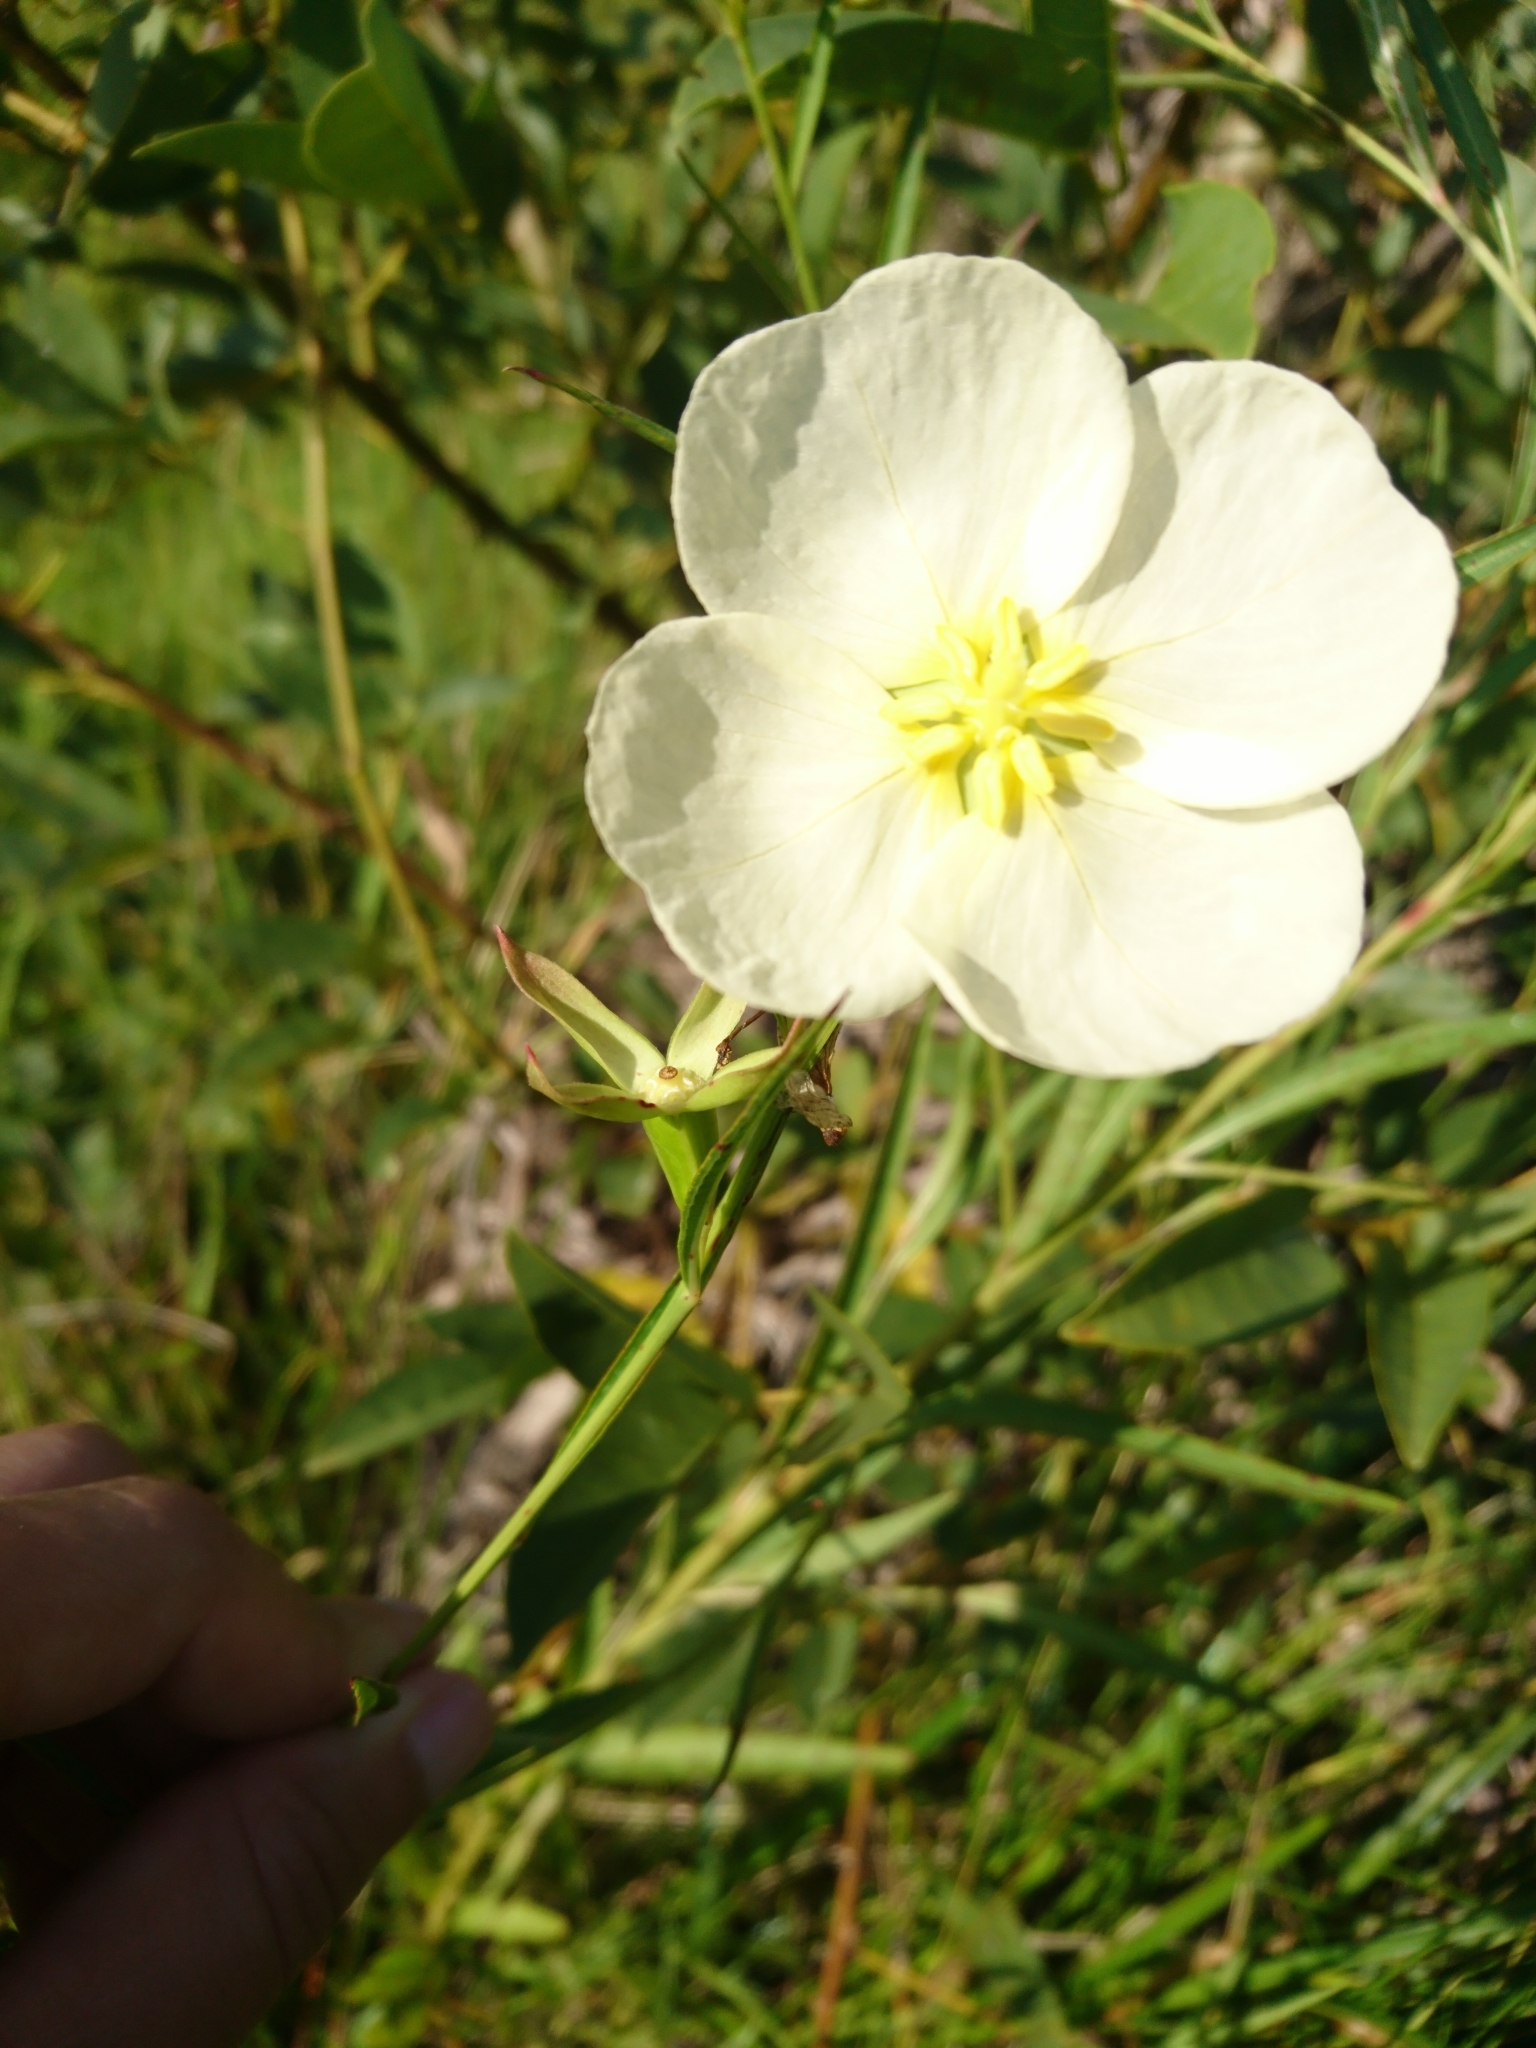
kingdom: Plantae
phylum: Tracheophyta
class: Magnoliopsida
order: Myrtales
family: Onagraceae
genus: Ludwigia
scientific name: Ludwigia major
